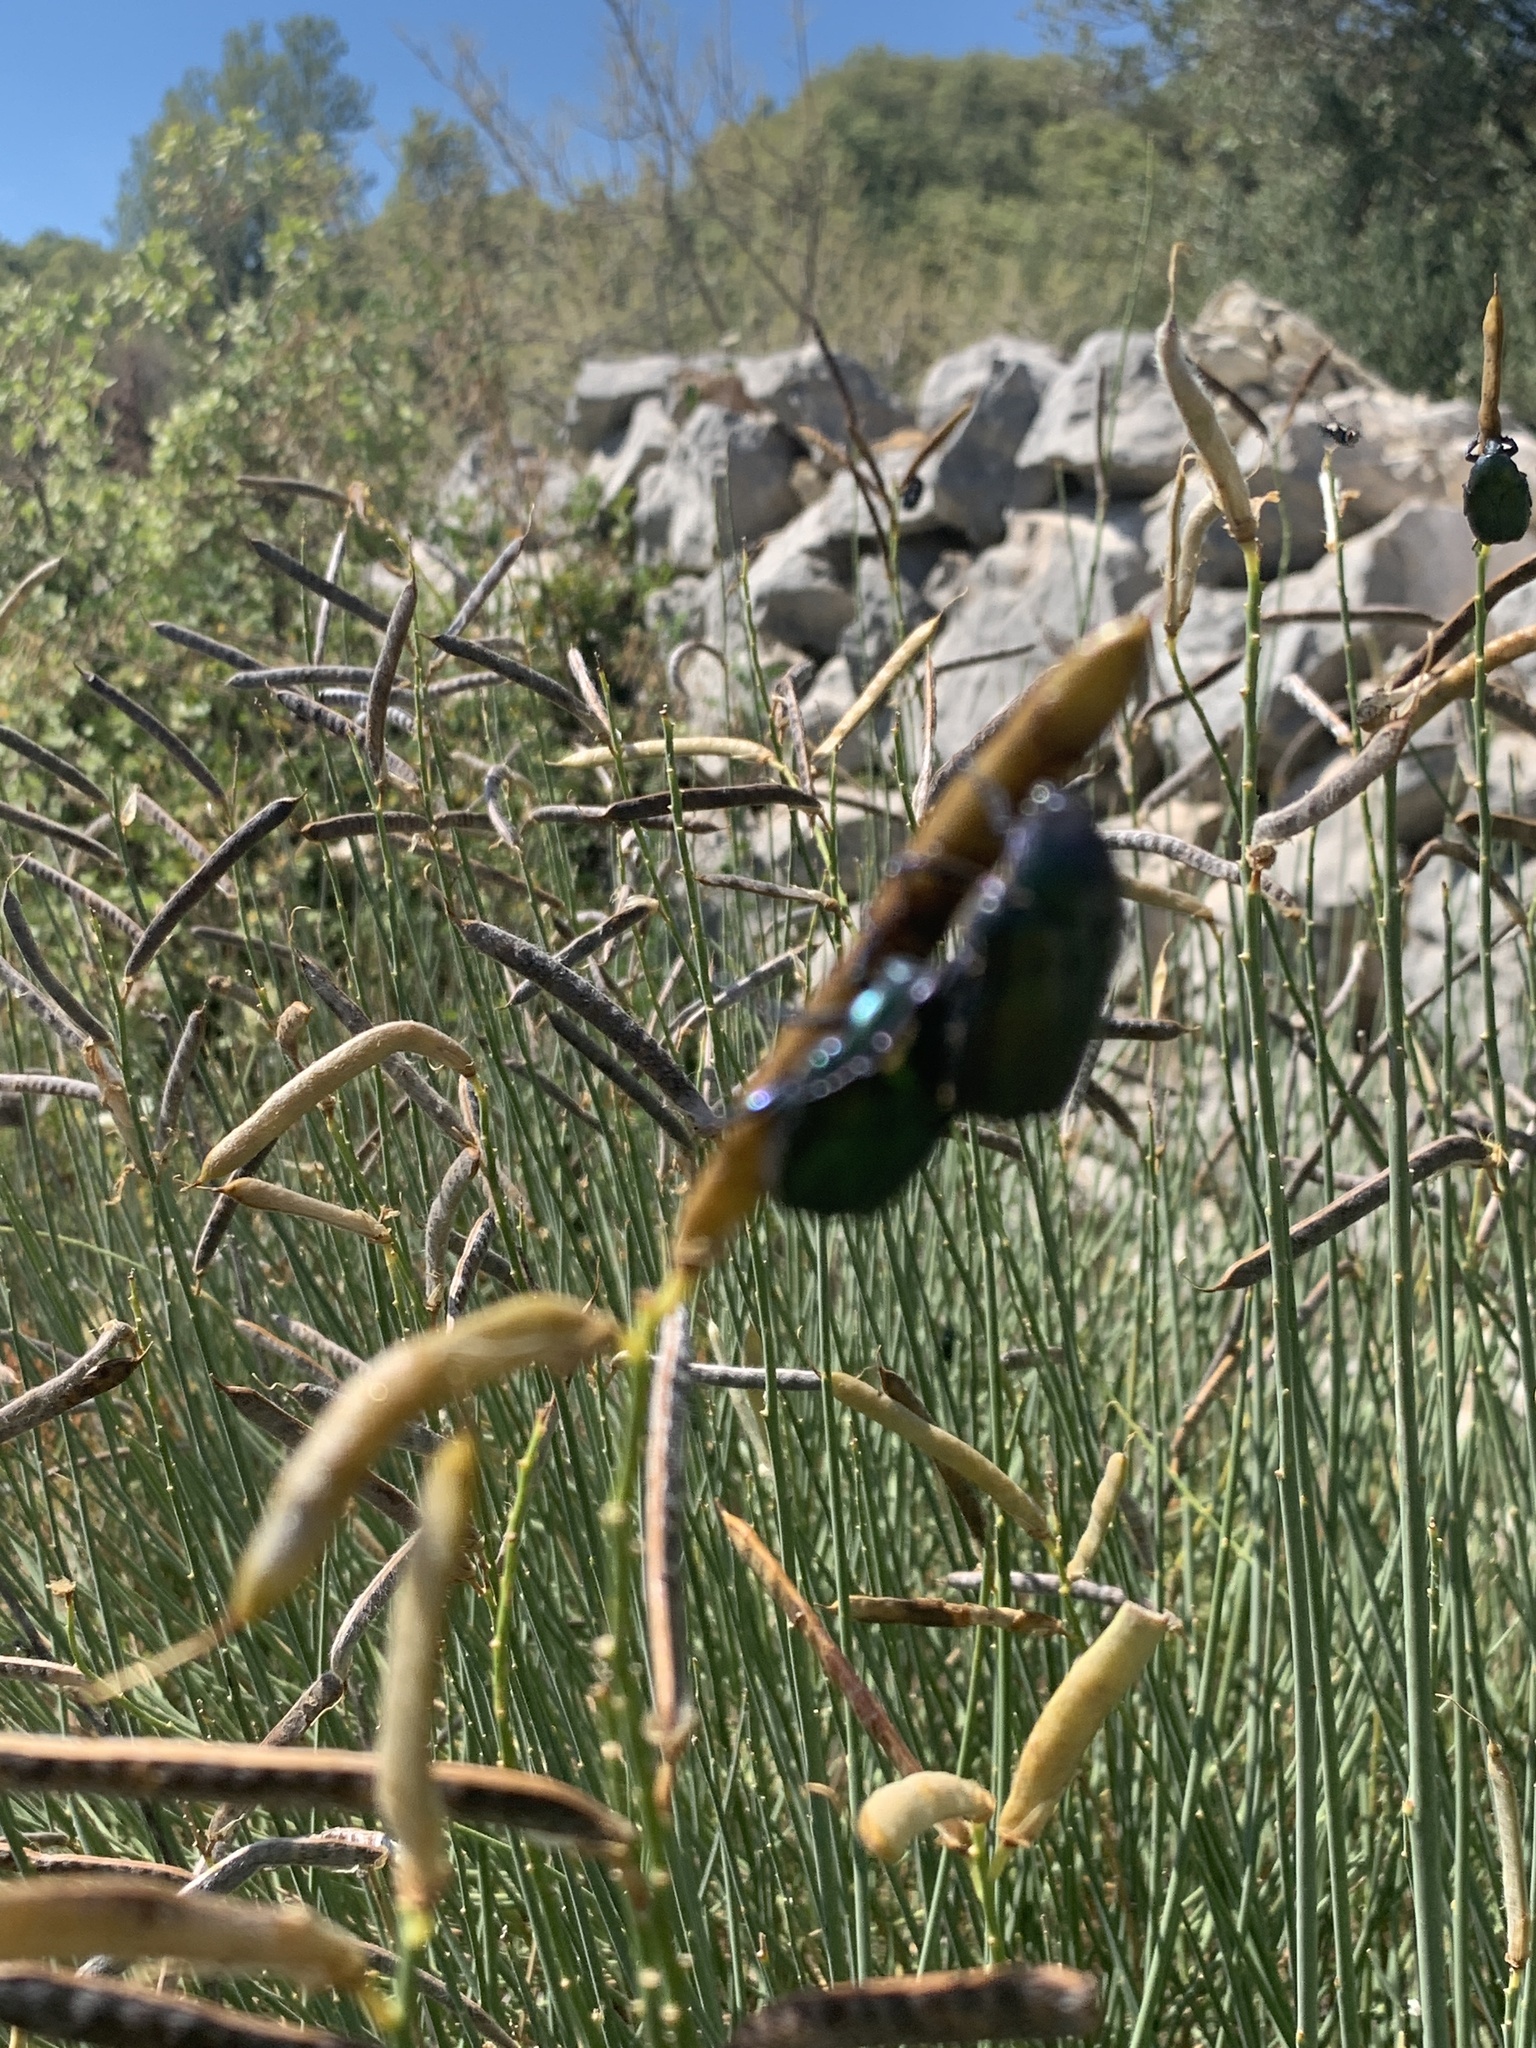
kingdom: Animalia
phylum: Arthropoda
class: Insecta
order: Coleoptera
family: Scarabaeidae
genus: Protaetia
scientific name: Protaetia angustata
